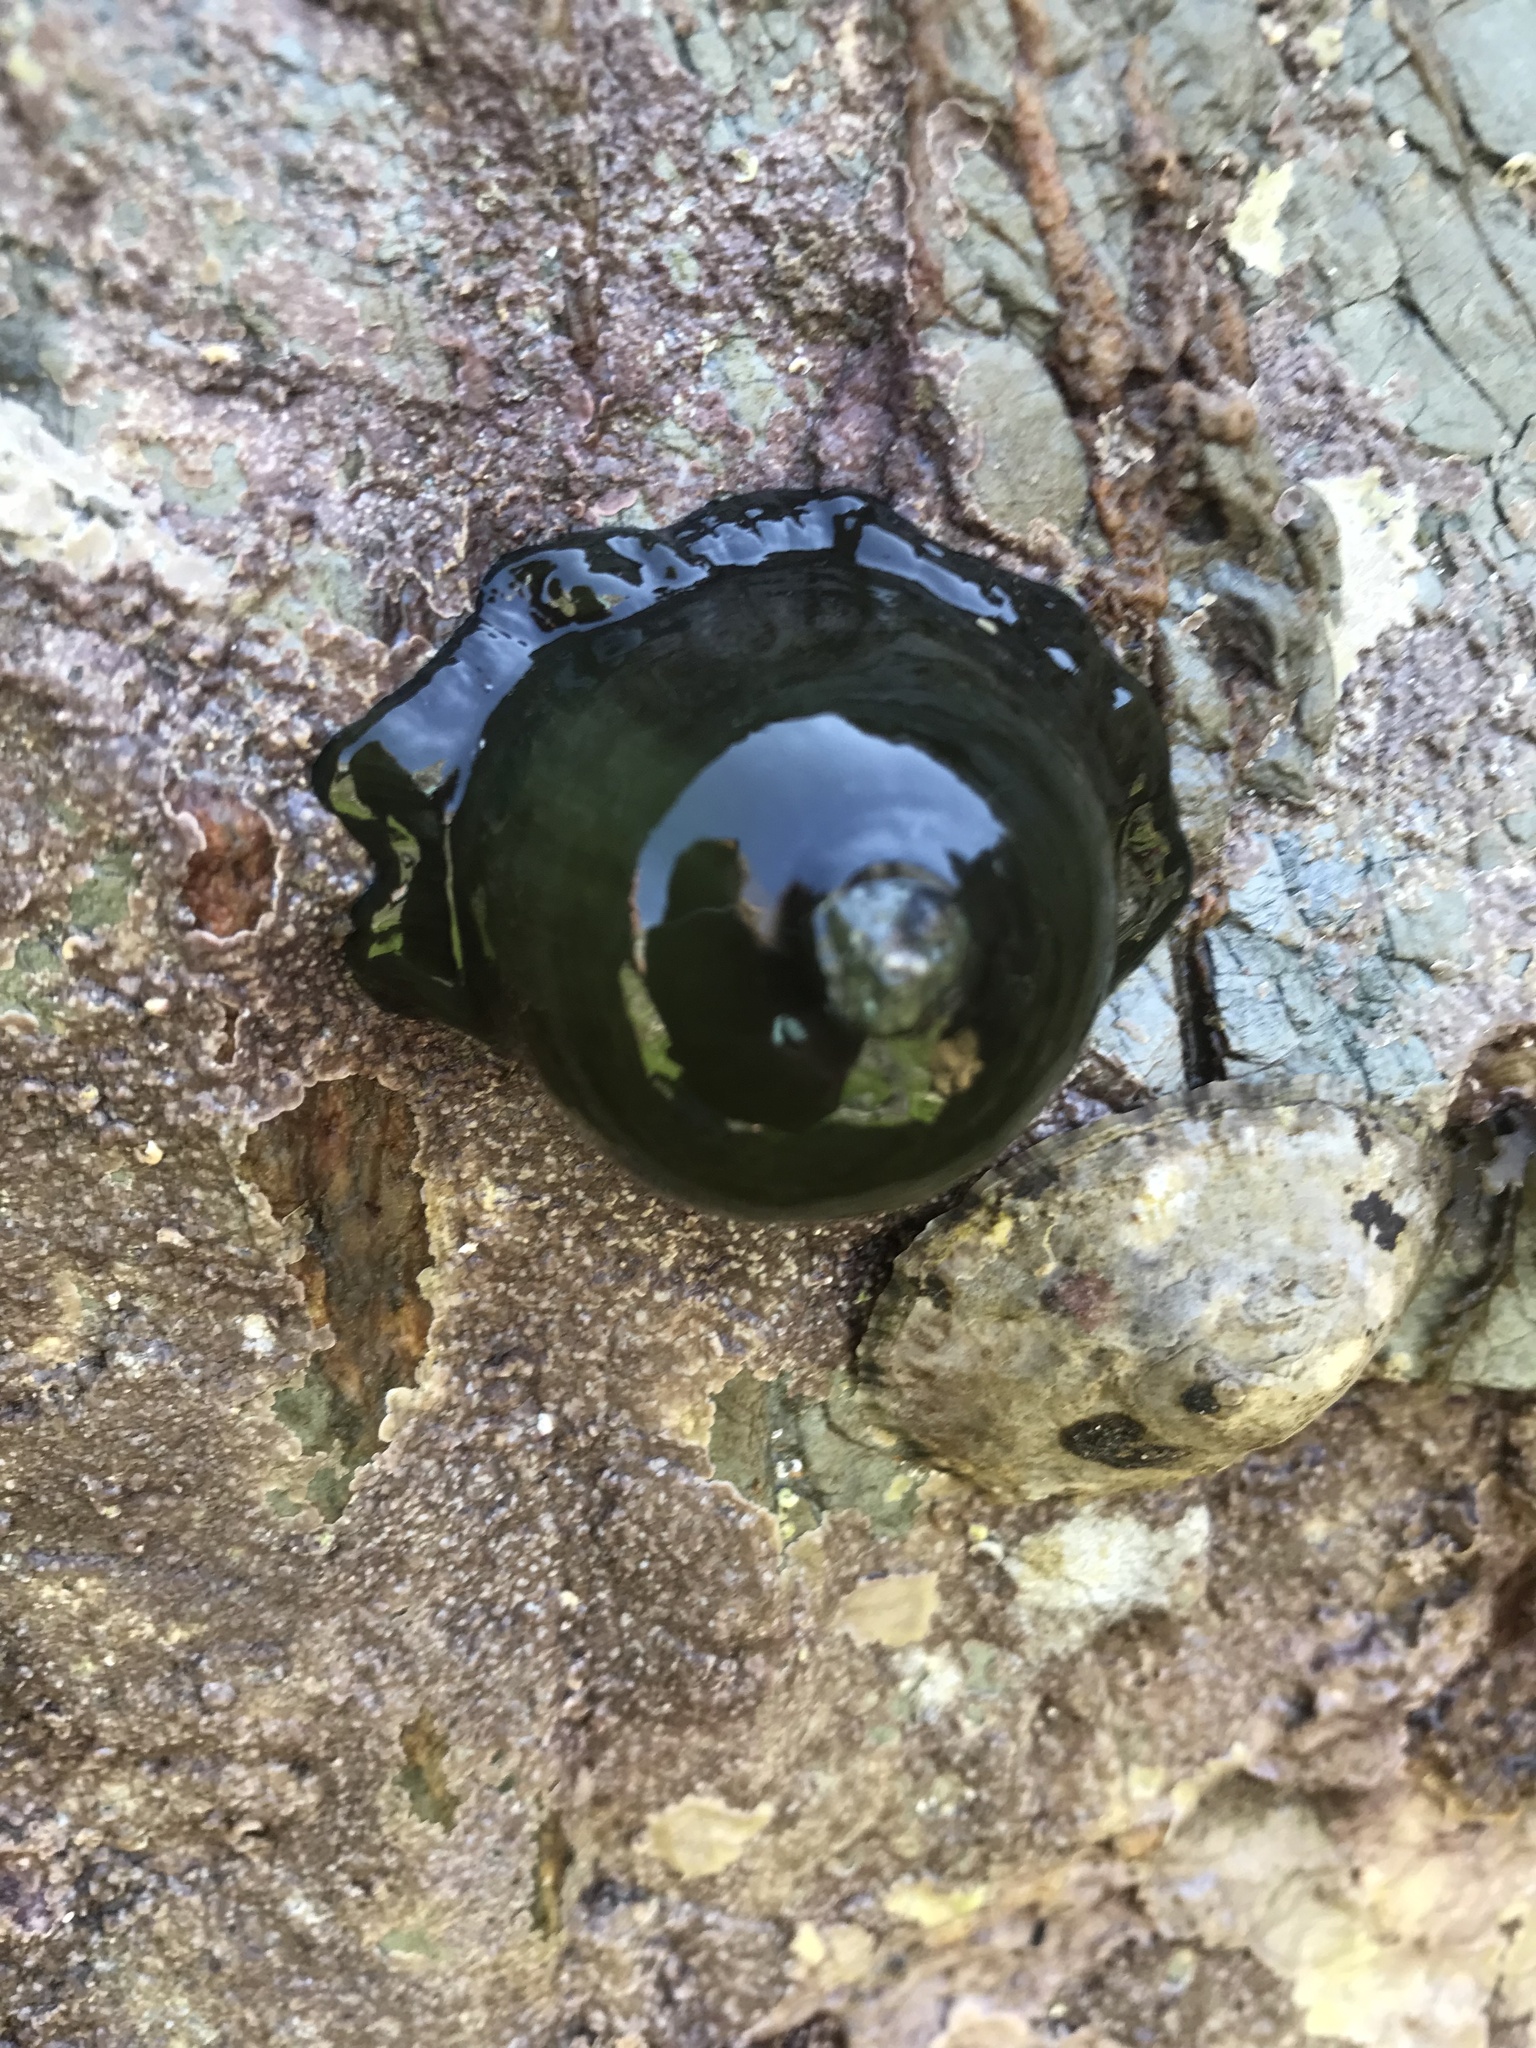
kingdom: Animalia
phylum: Cnidaria
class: Anthozoa
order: Actiniaria
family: Actiniidae
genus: Actinia
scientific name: Actinia equina
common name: Beadlet anemone
